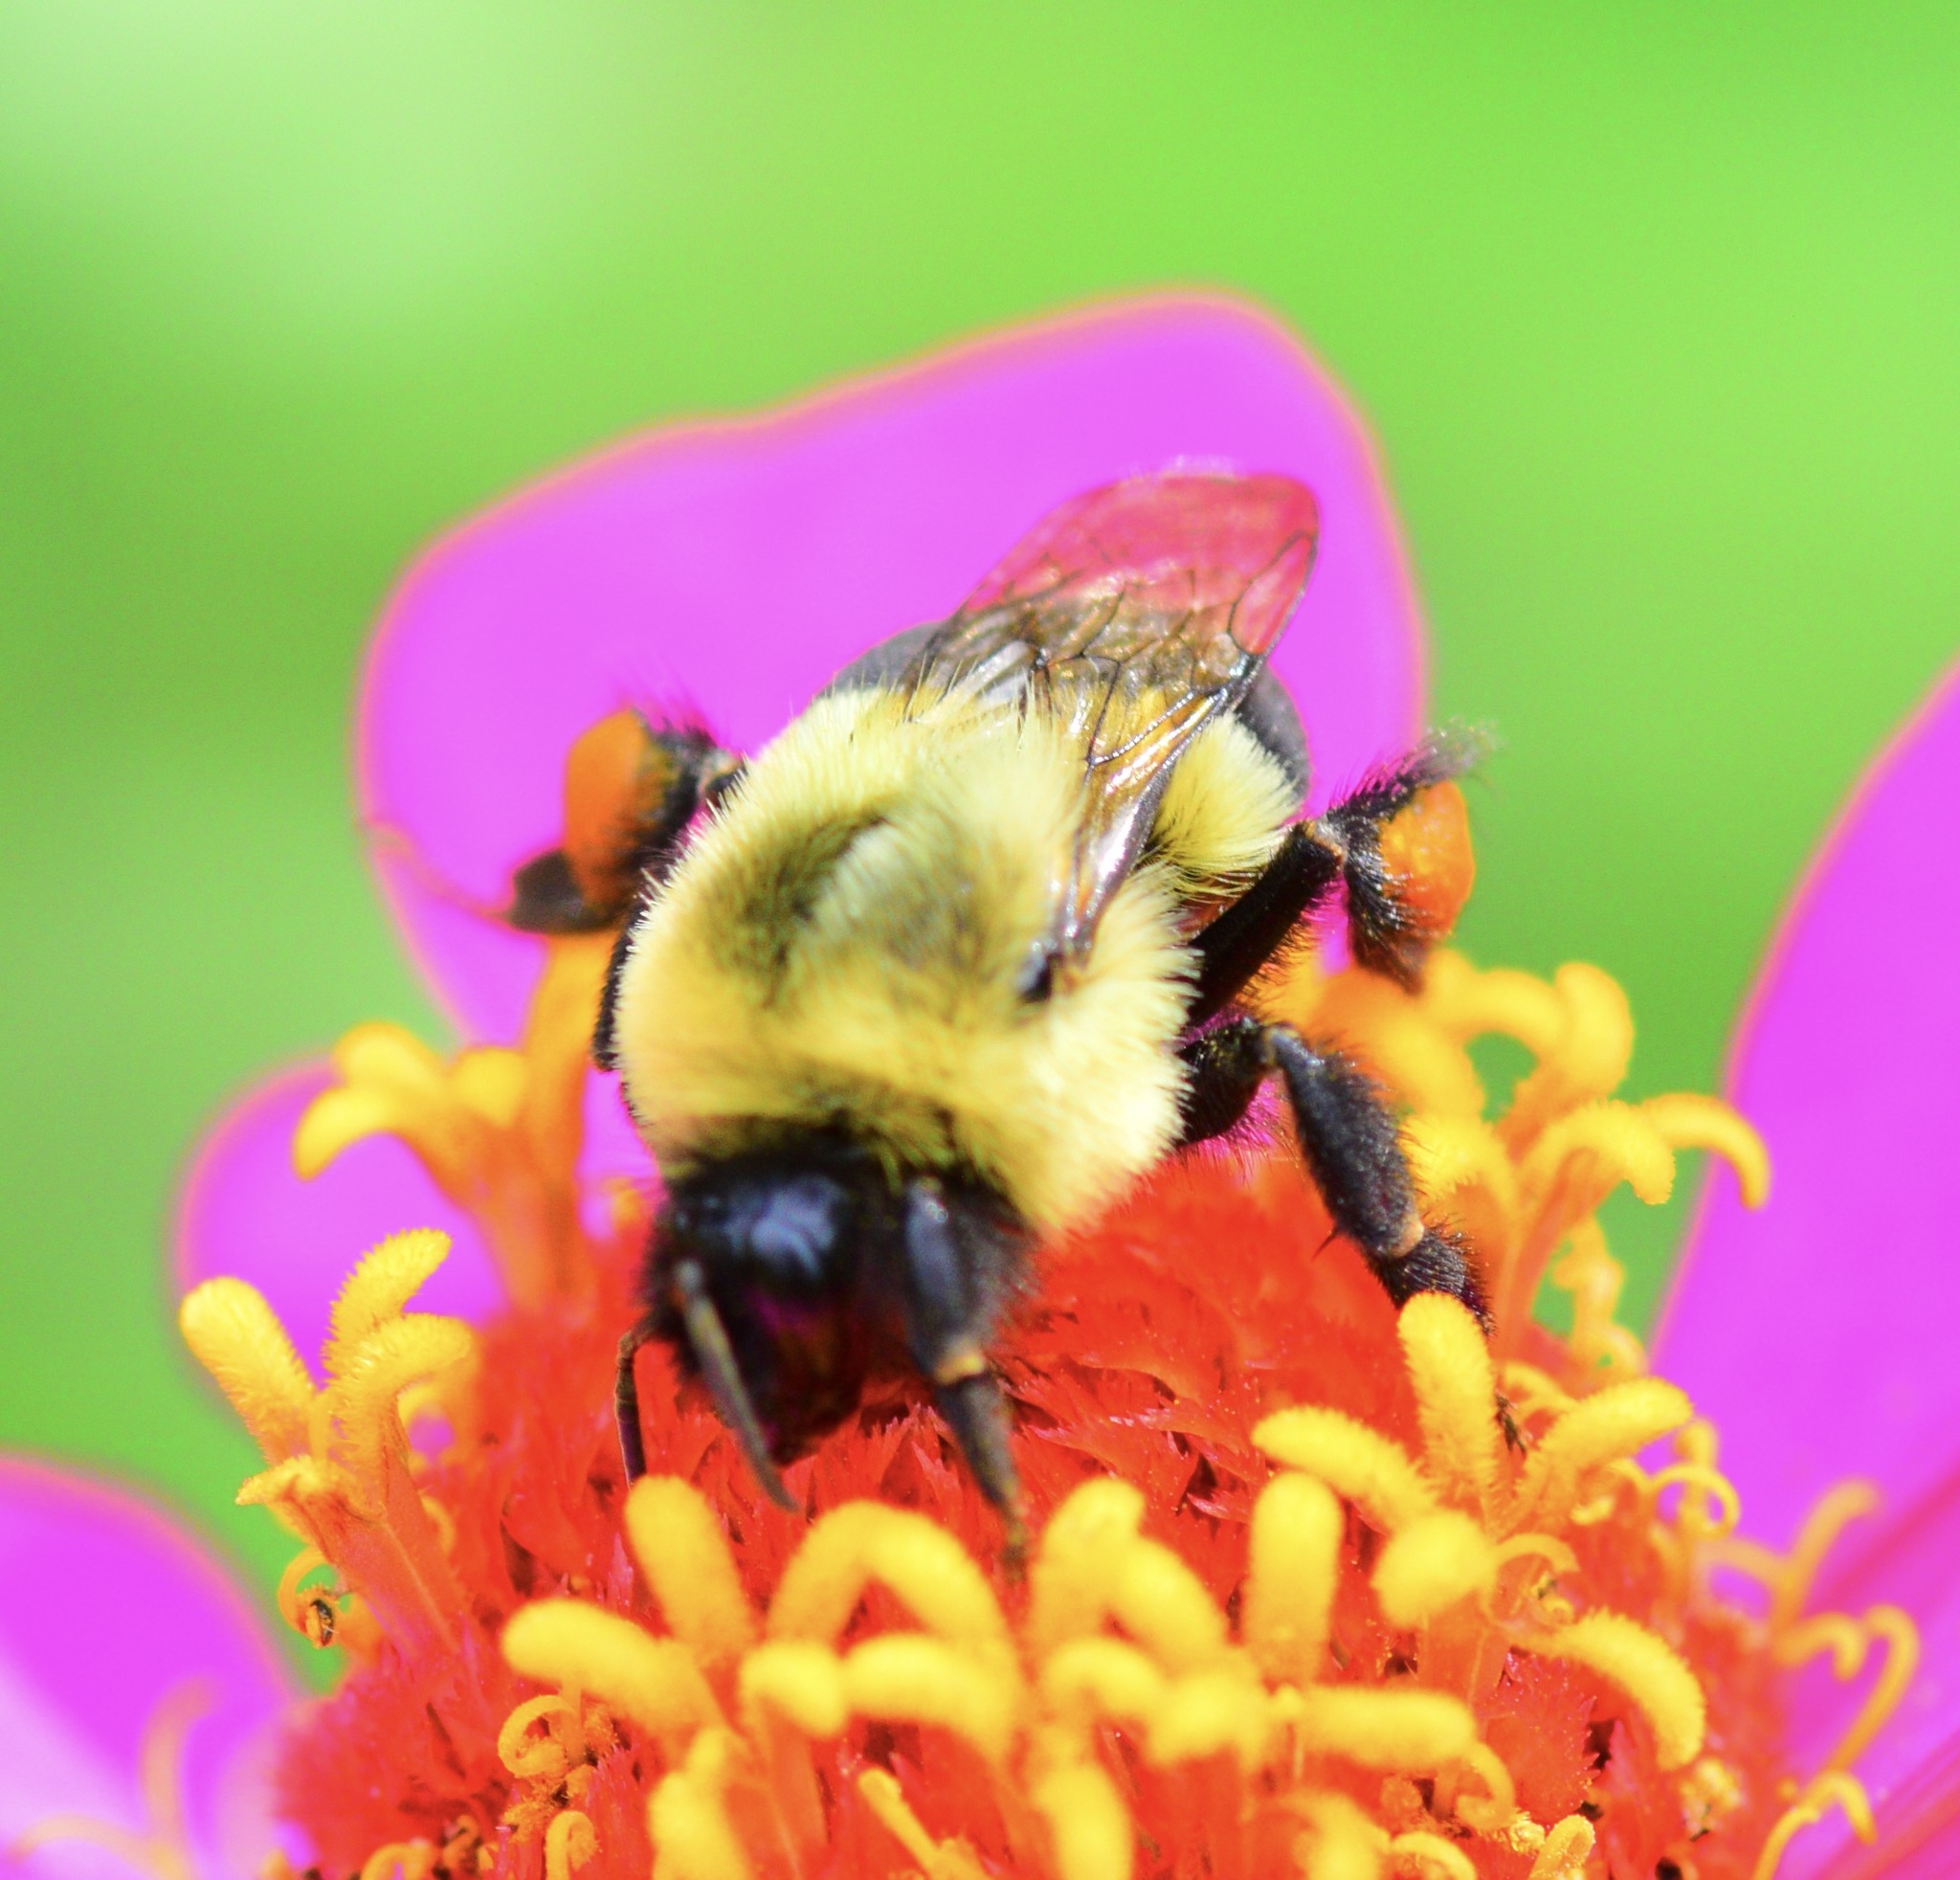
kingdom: Animalia
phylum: Arthropoda
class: Insecta
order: Hymenoptera
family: Apidae
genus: Bombus
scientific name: Bombus impatiens
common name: Common eastern bumble bee
